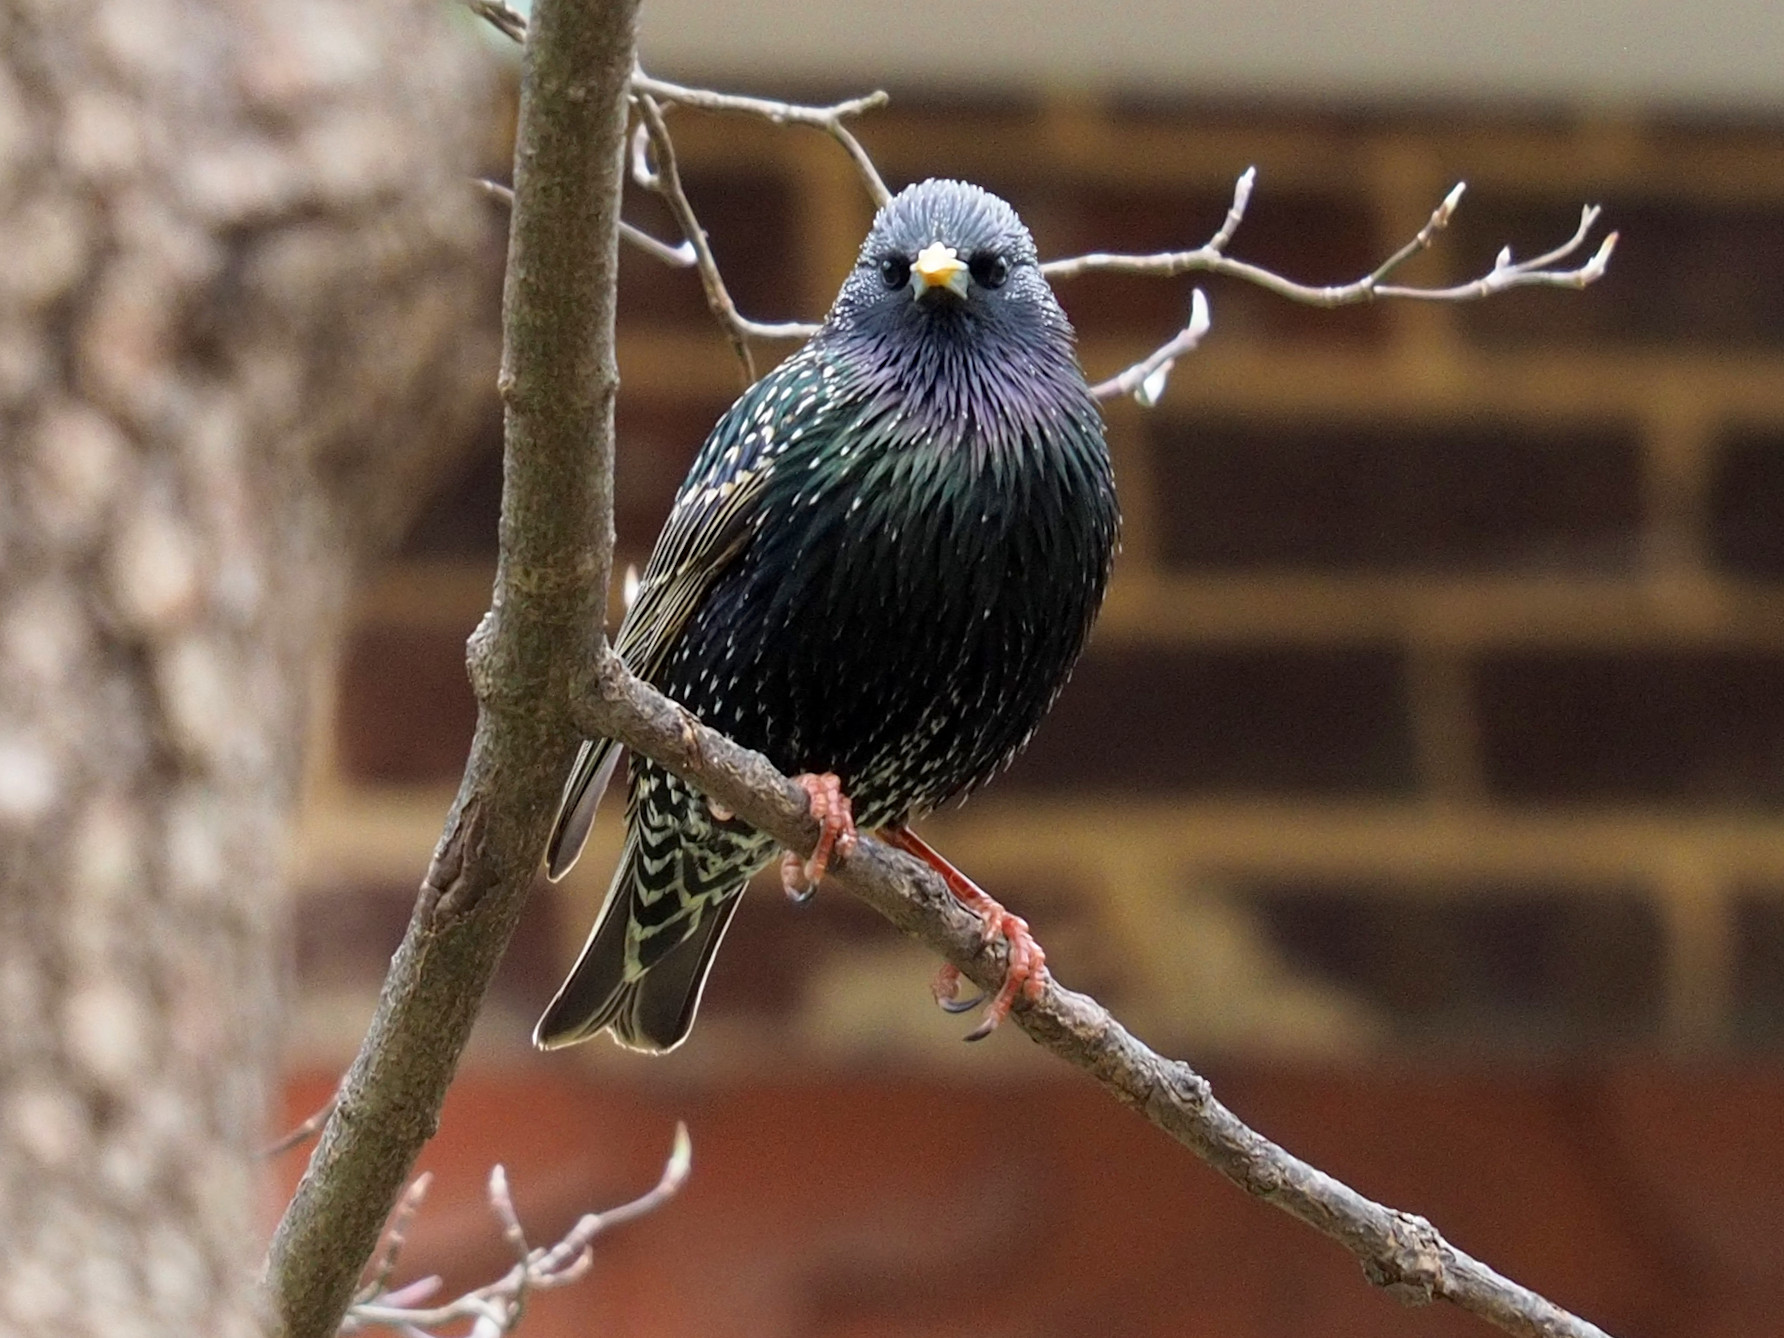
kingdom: Animalia
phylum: Chordata
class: Aves
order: Passeriformes
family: Sturnidae
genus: Sturnus
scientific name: Sturnus vulgaris
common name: Common starling
